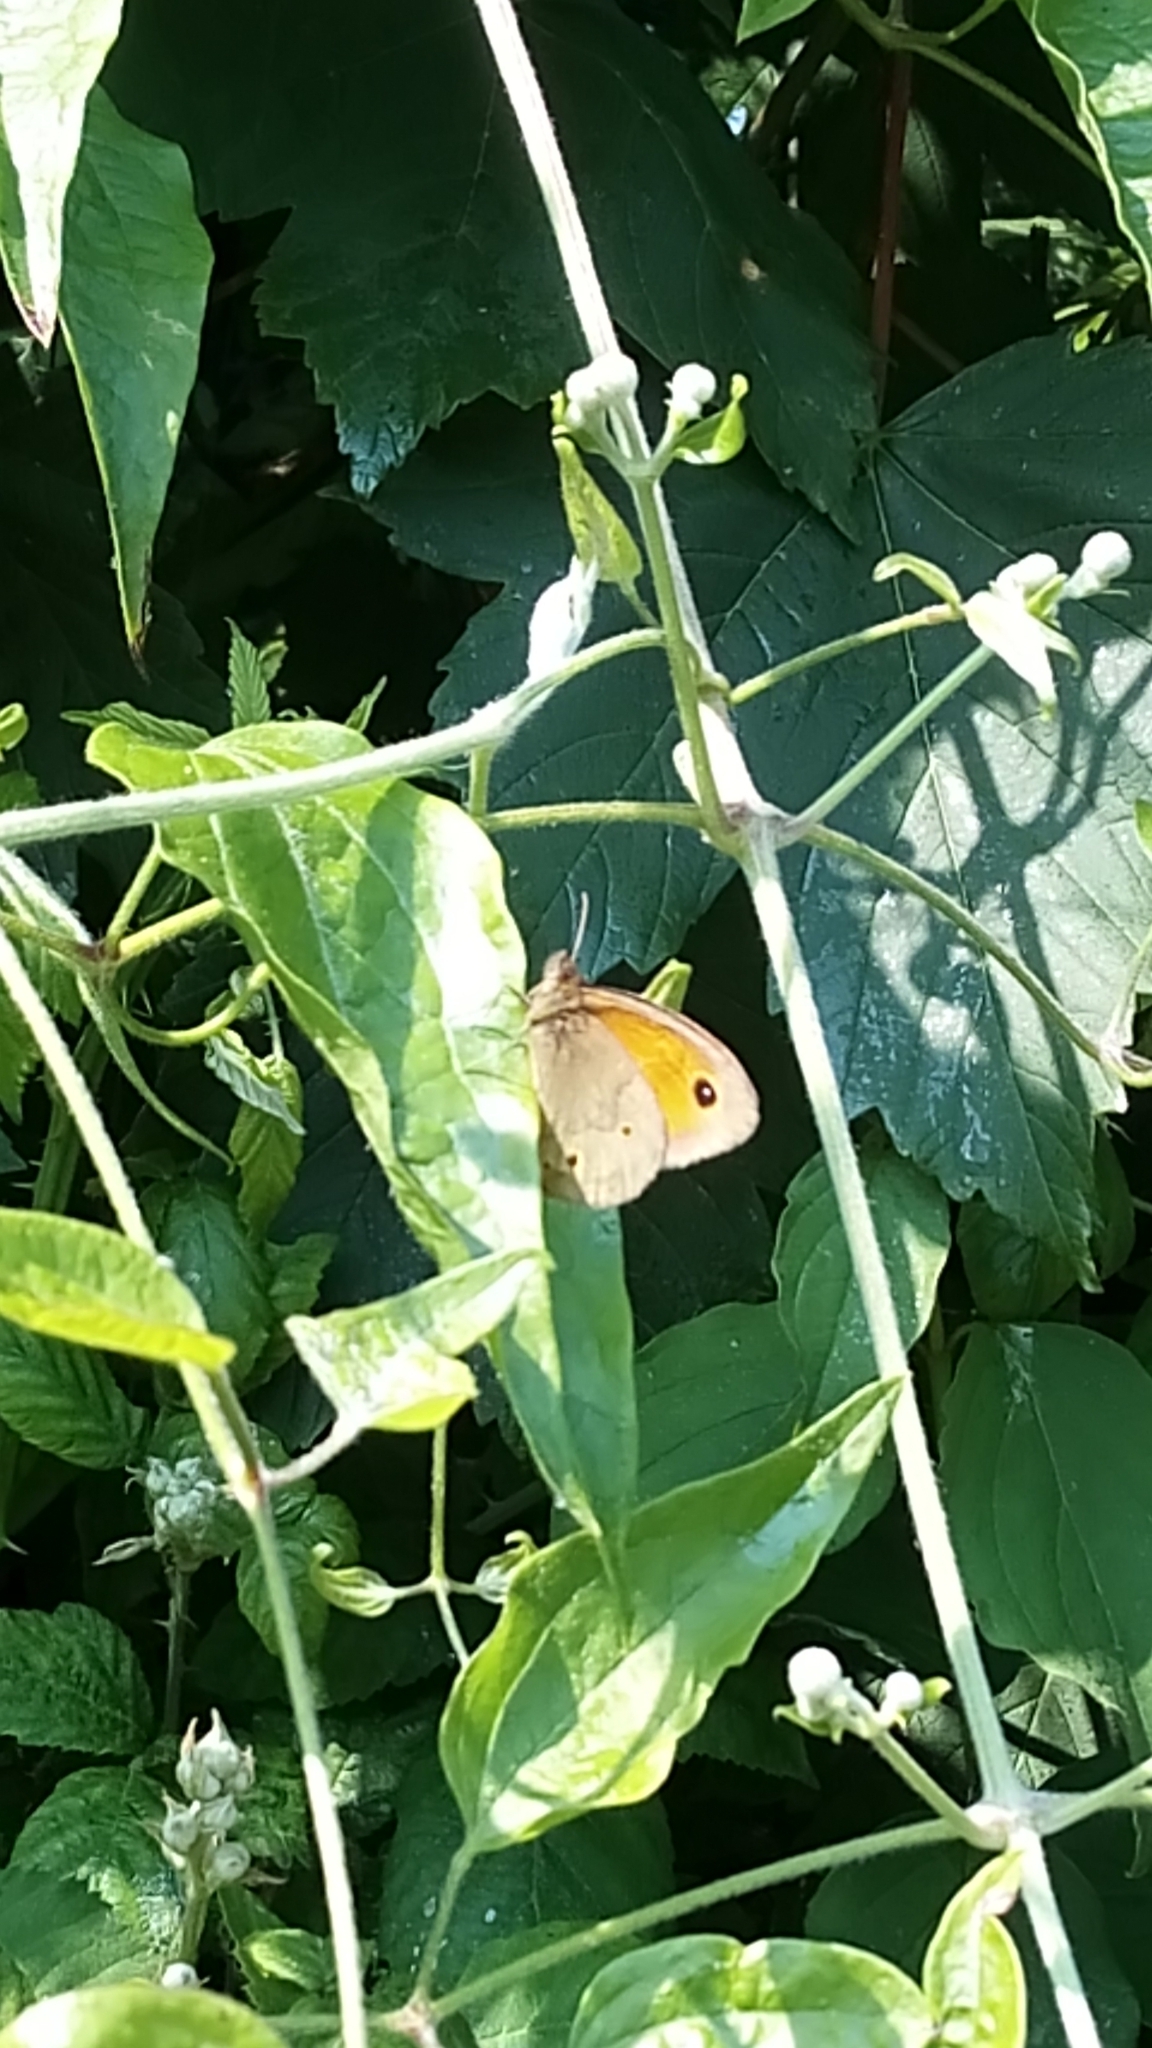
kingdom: Animalia
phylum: Arthropoda
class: Insecta
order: Lepidoptera
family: Nymphalidae
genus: Maniola
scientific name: Maniola jurtina
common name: Meadow brown
